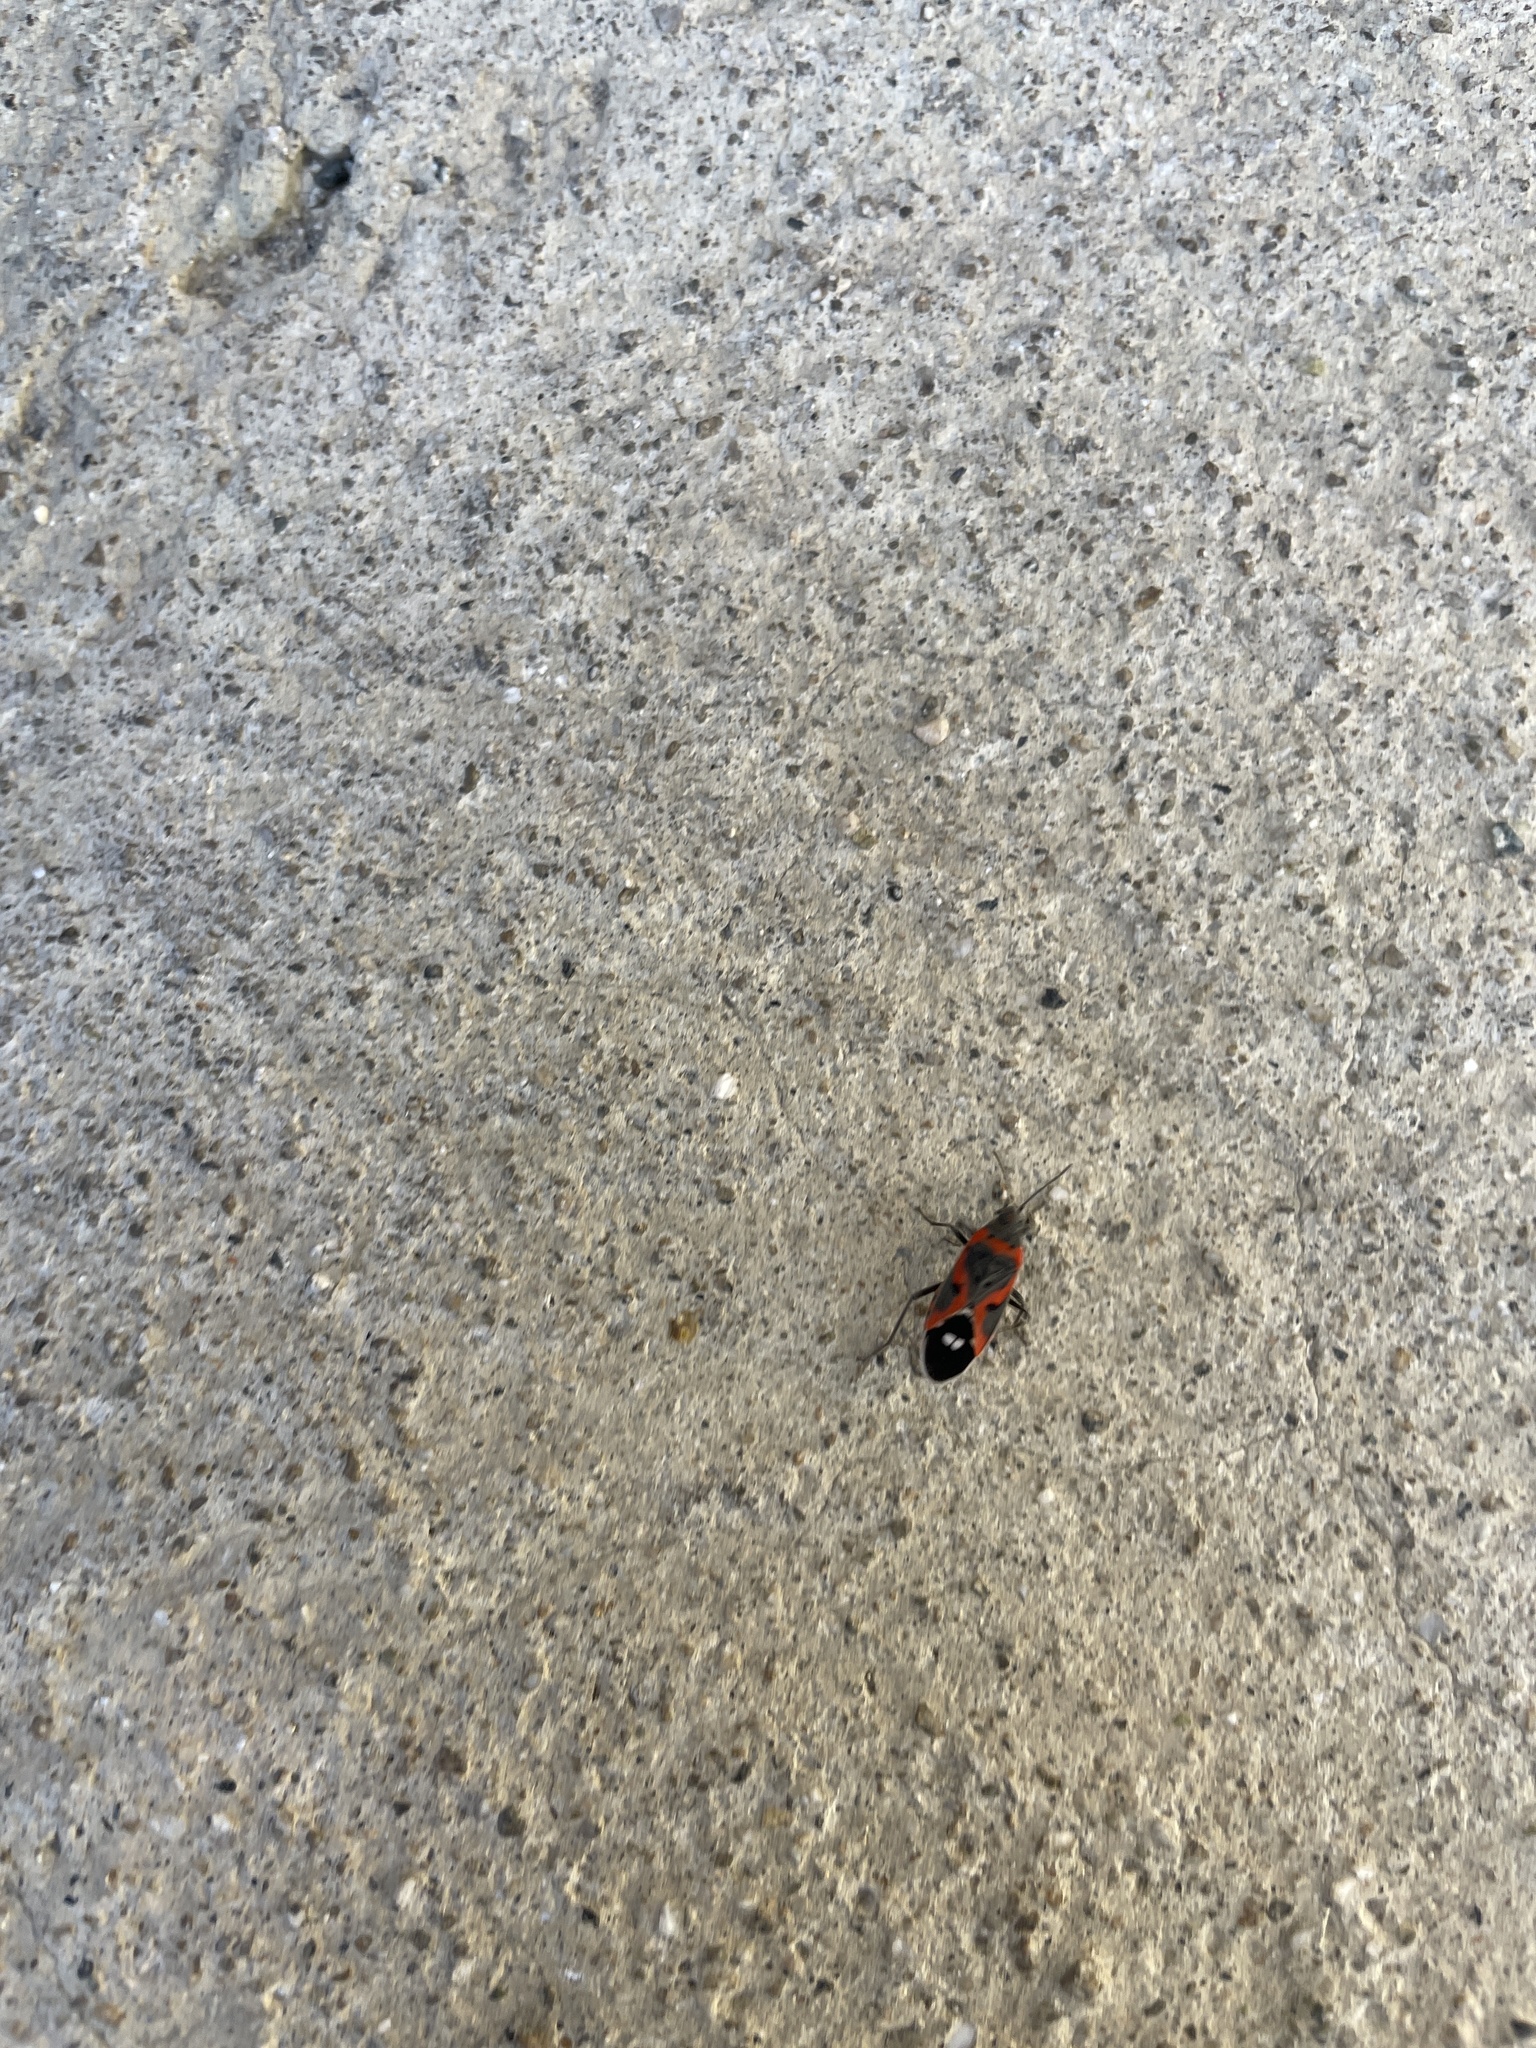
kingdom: Animalia
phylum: Arthropoda
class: Insecta
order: Hemiptera
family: Lygaeidae
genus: Lygaeus
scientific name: Lygaeus kalmii
